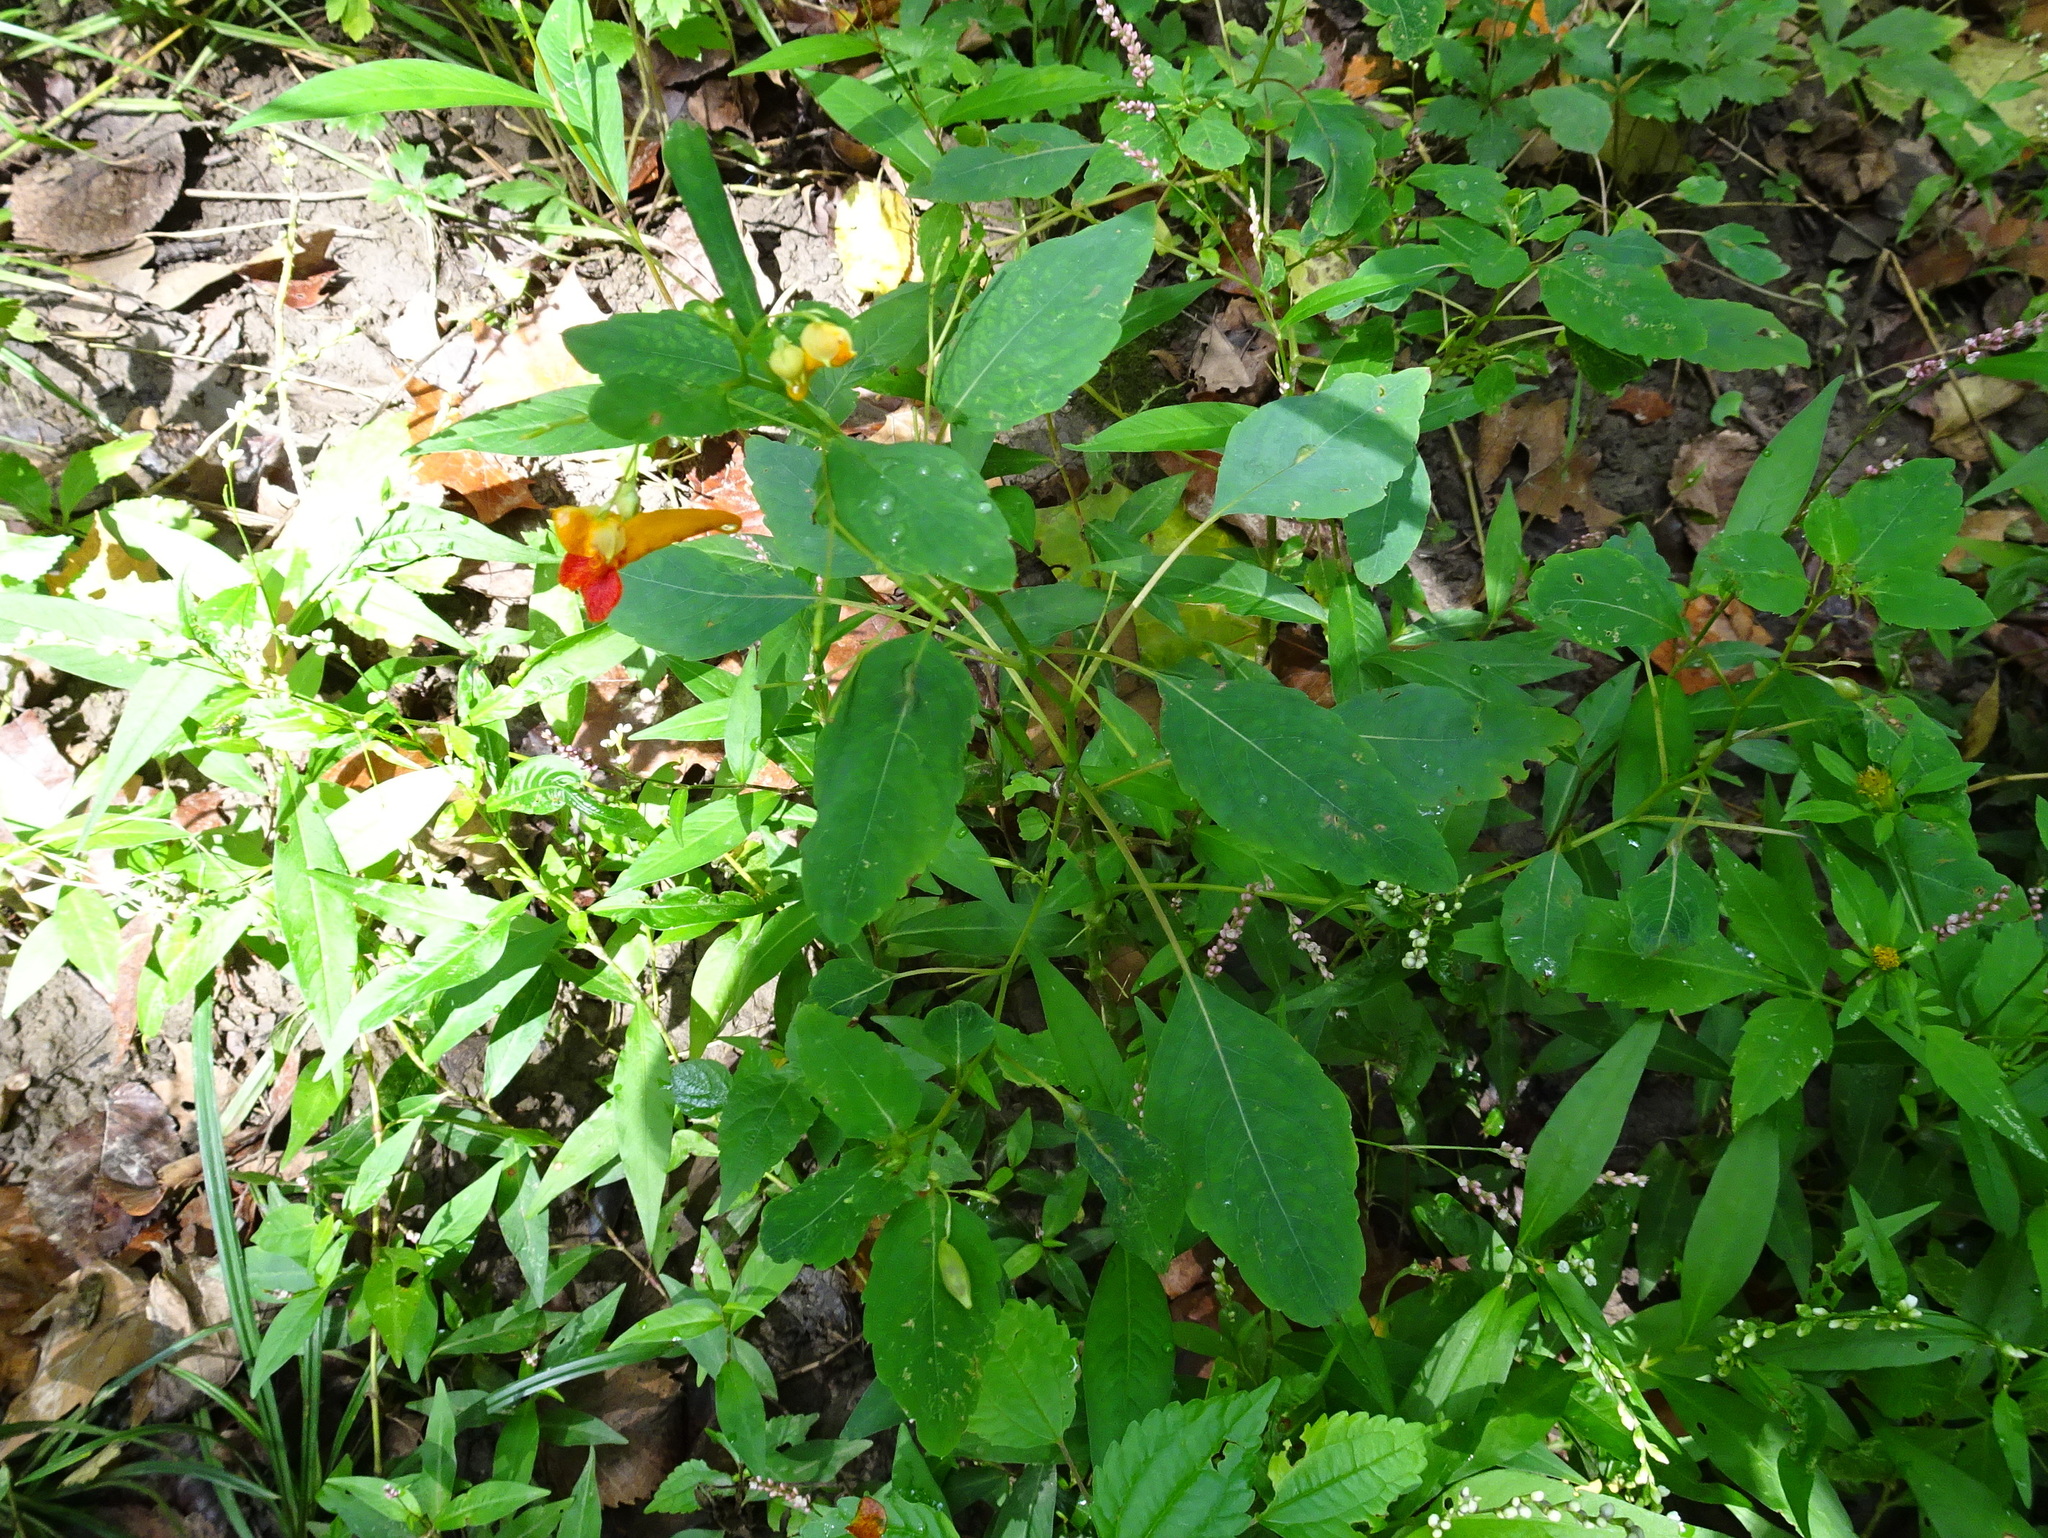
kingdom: Plantae
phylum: Tracheophyta
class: Magnoliopsida
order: Ericales
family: Balsaminaceae
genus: Impatiens
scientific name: Impatiens capensis
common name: Orange balsam
